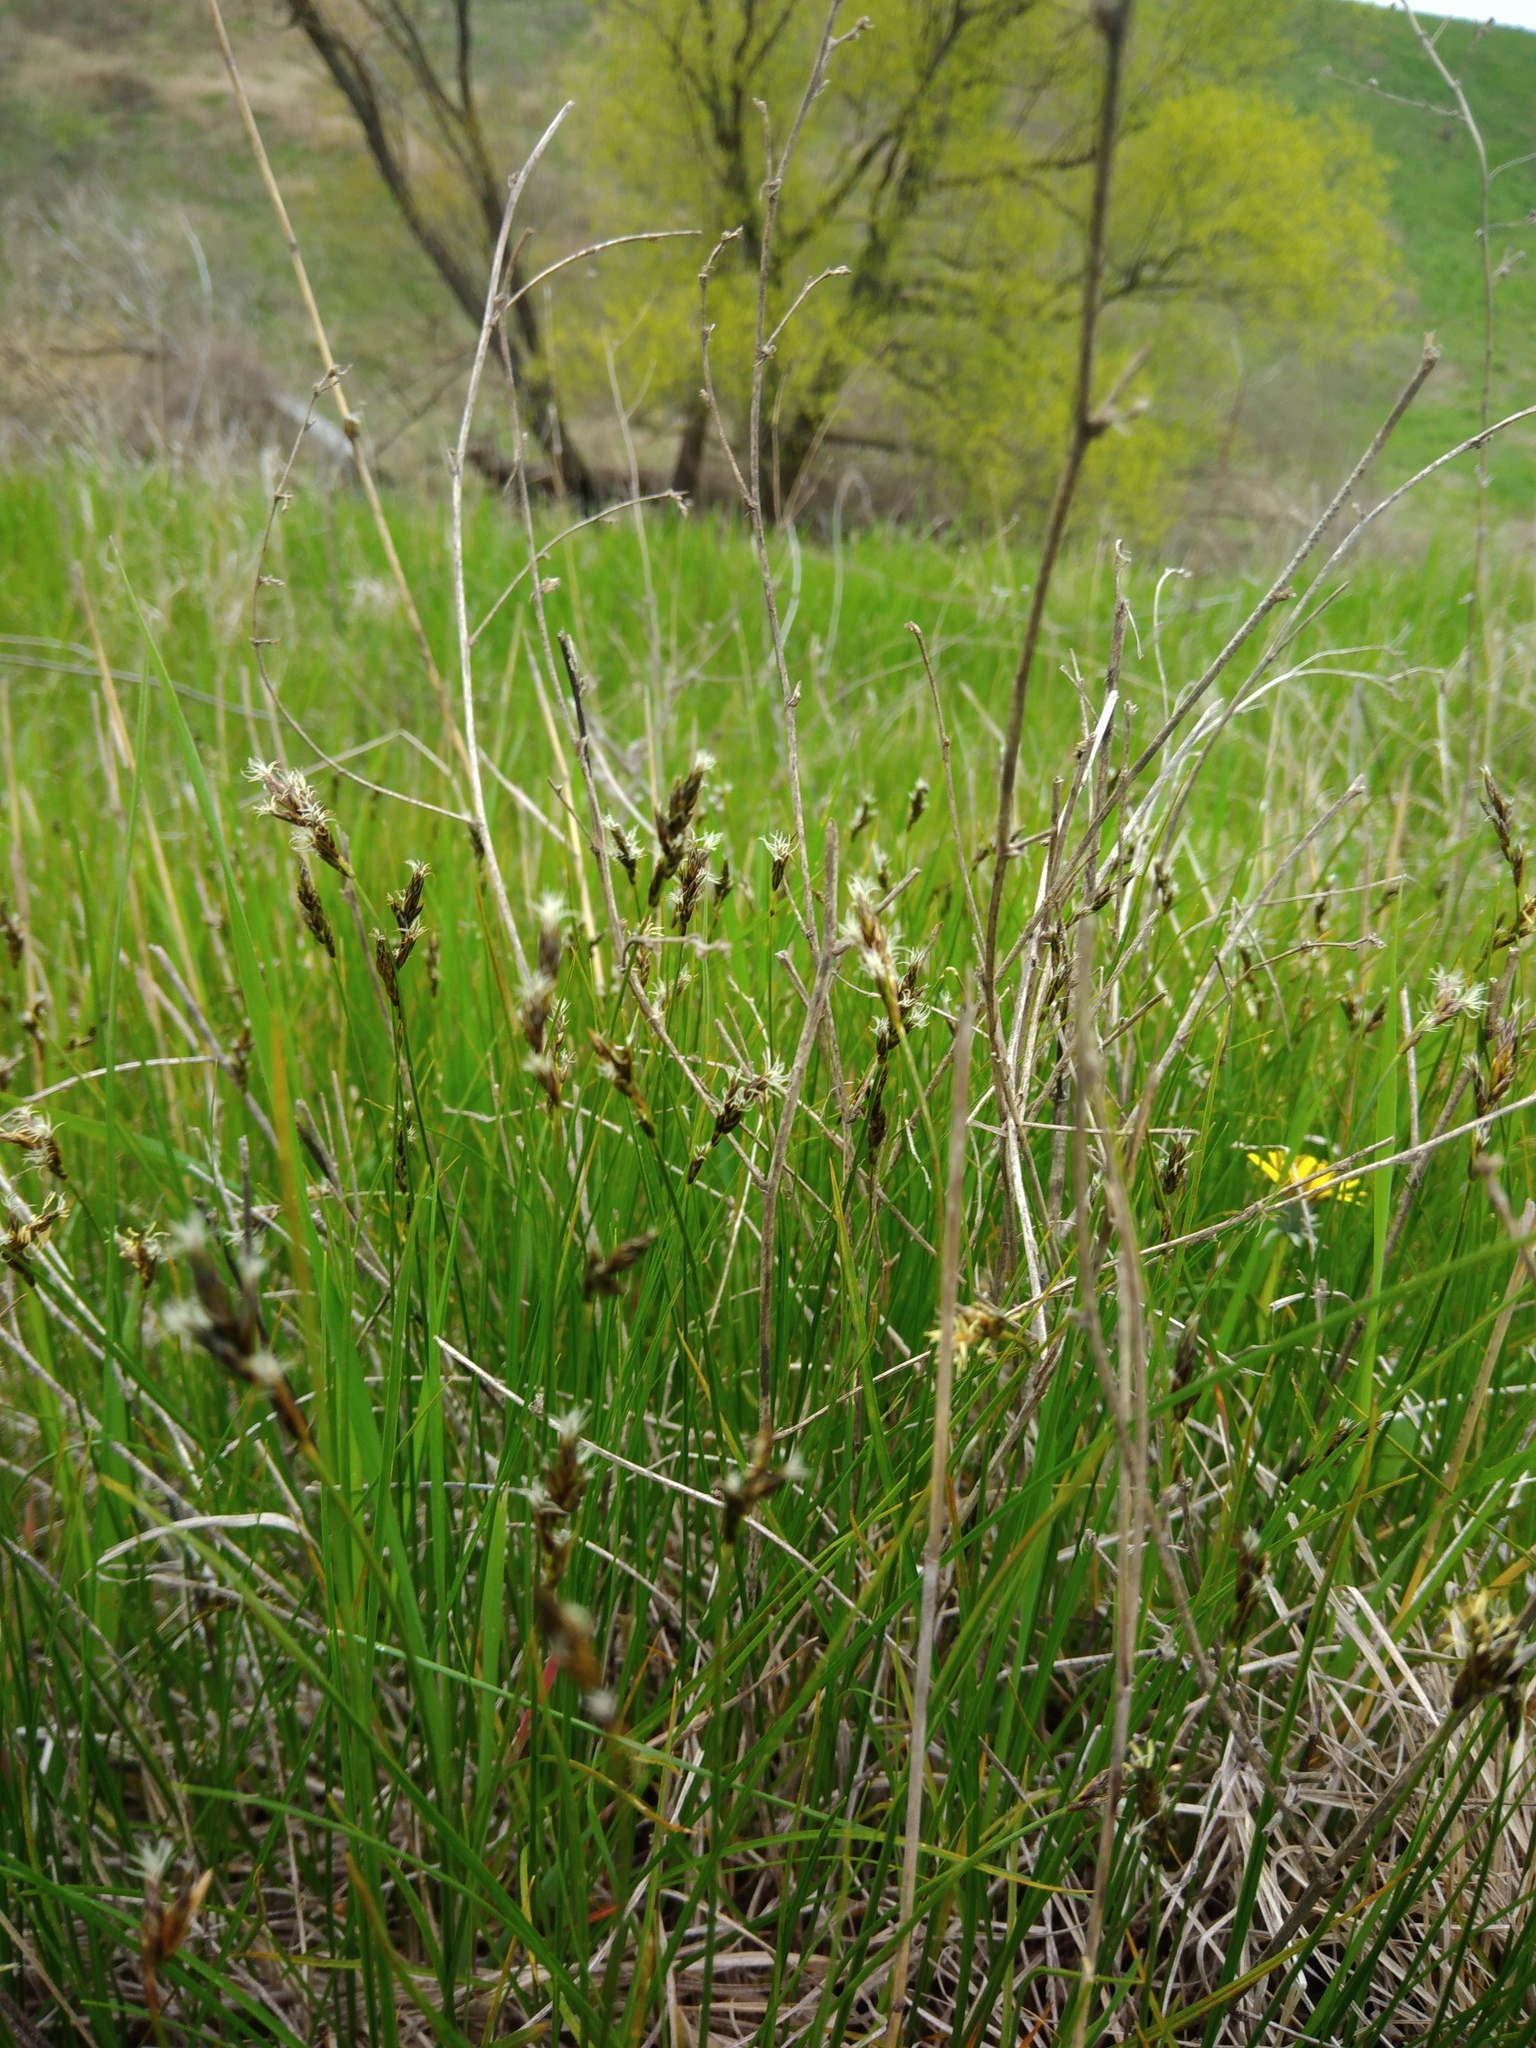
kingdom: Plantae
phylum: Tracheophyta
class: Liliopsida
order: Poales
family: Cyperaceae
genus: Carex
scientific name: Carex praecox
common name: Early sedge
